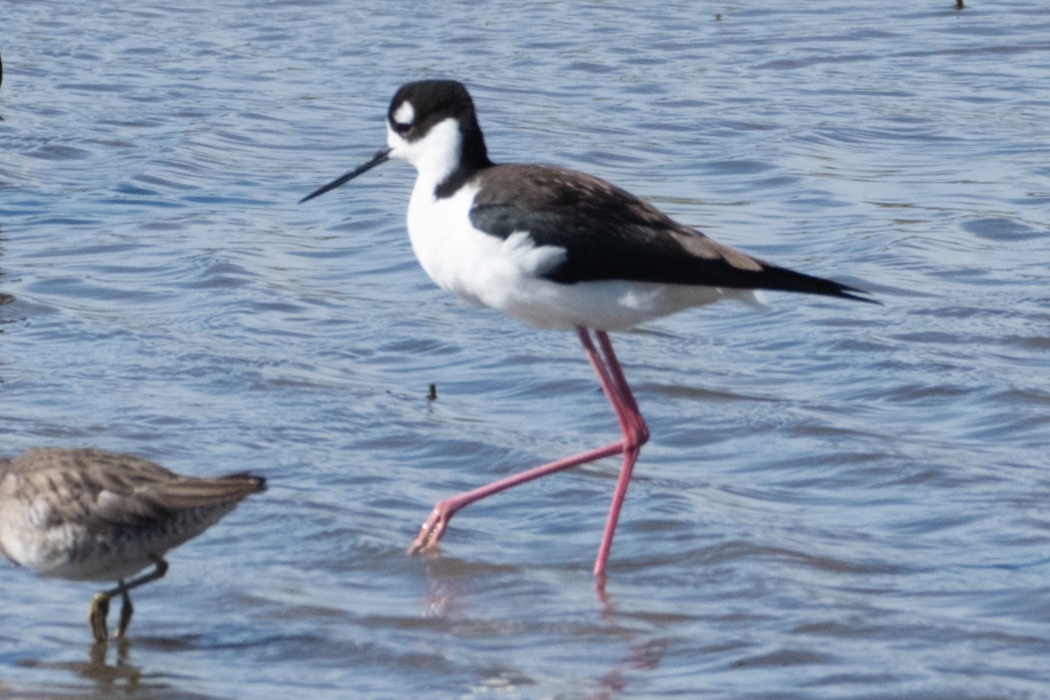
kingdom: Animalia
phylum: Chordata
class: Aves
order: Charadriiformes
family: Recurvirostridae
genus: Himantopus
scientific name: Himantopus mexicanus
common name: Black-necked stilt
